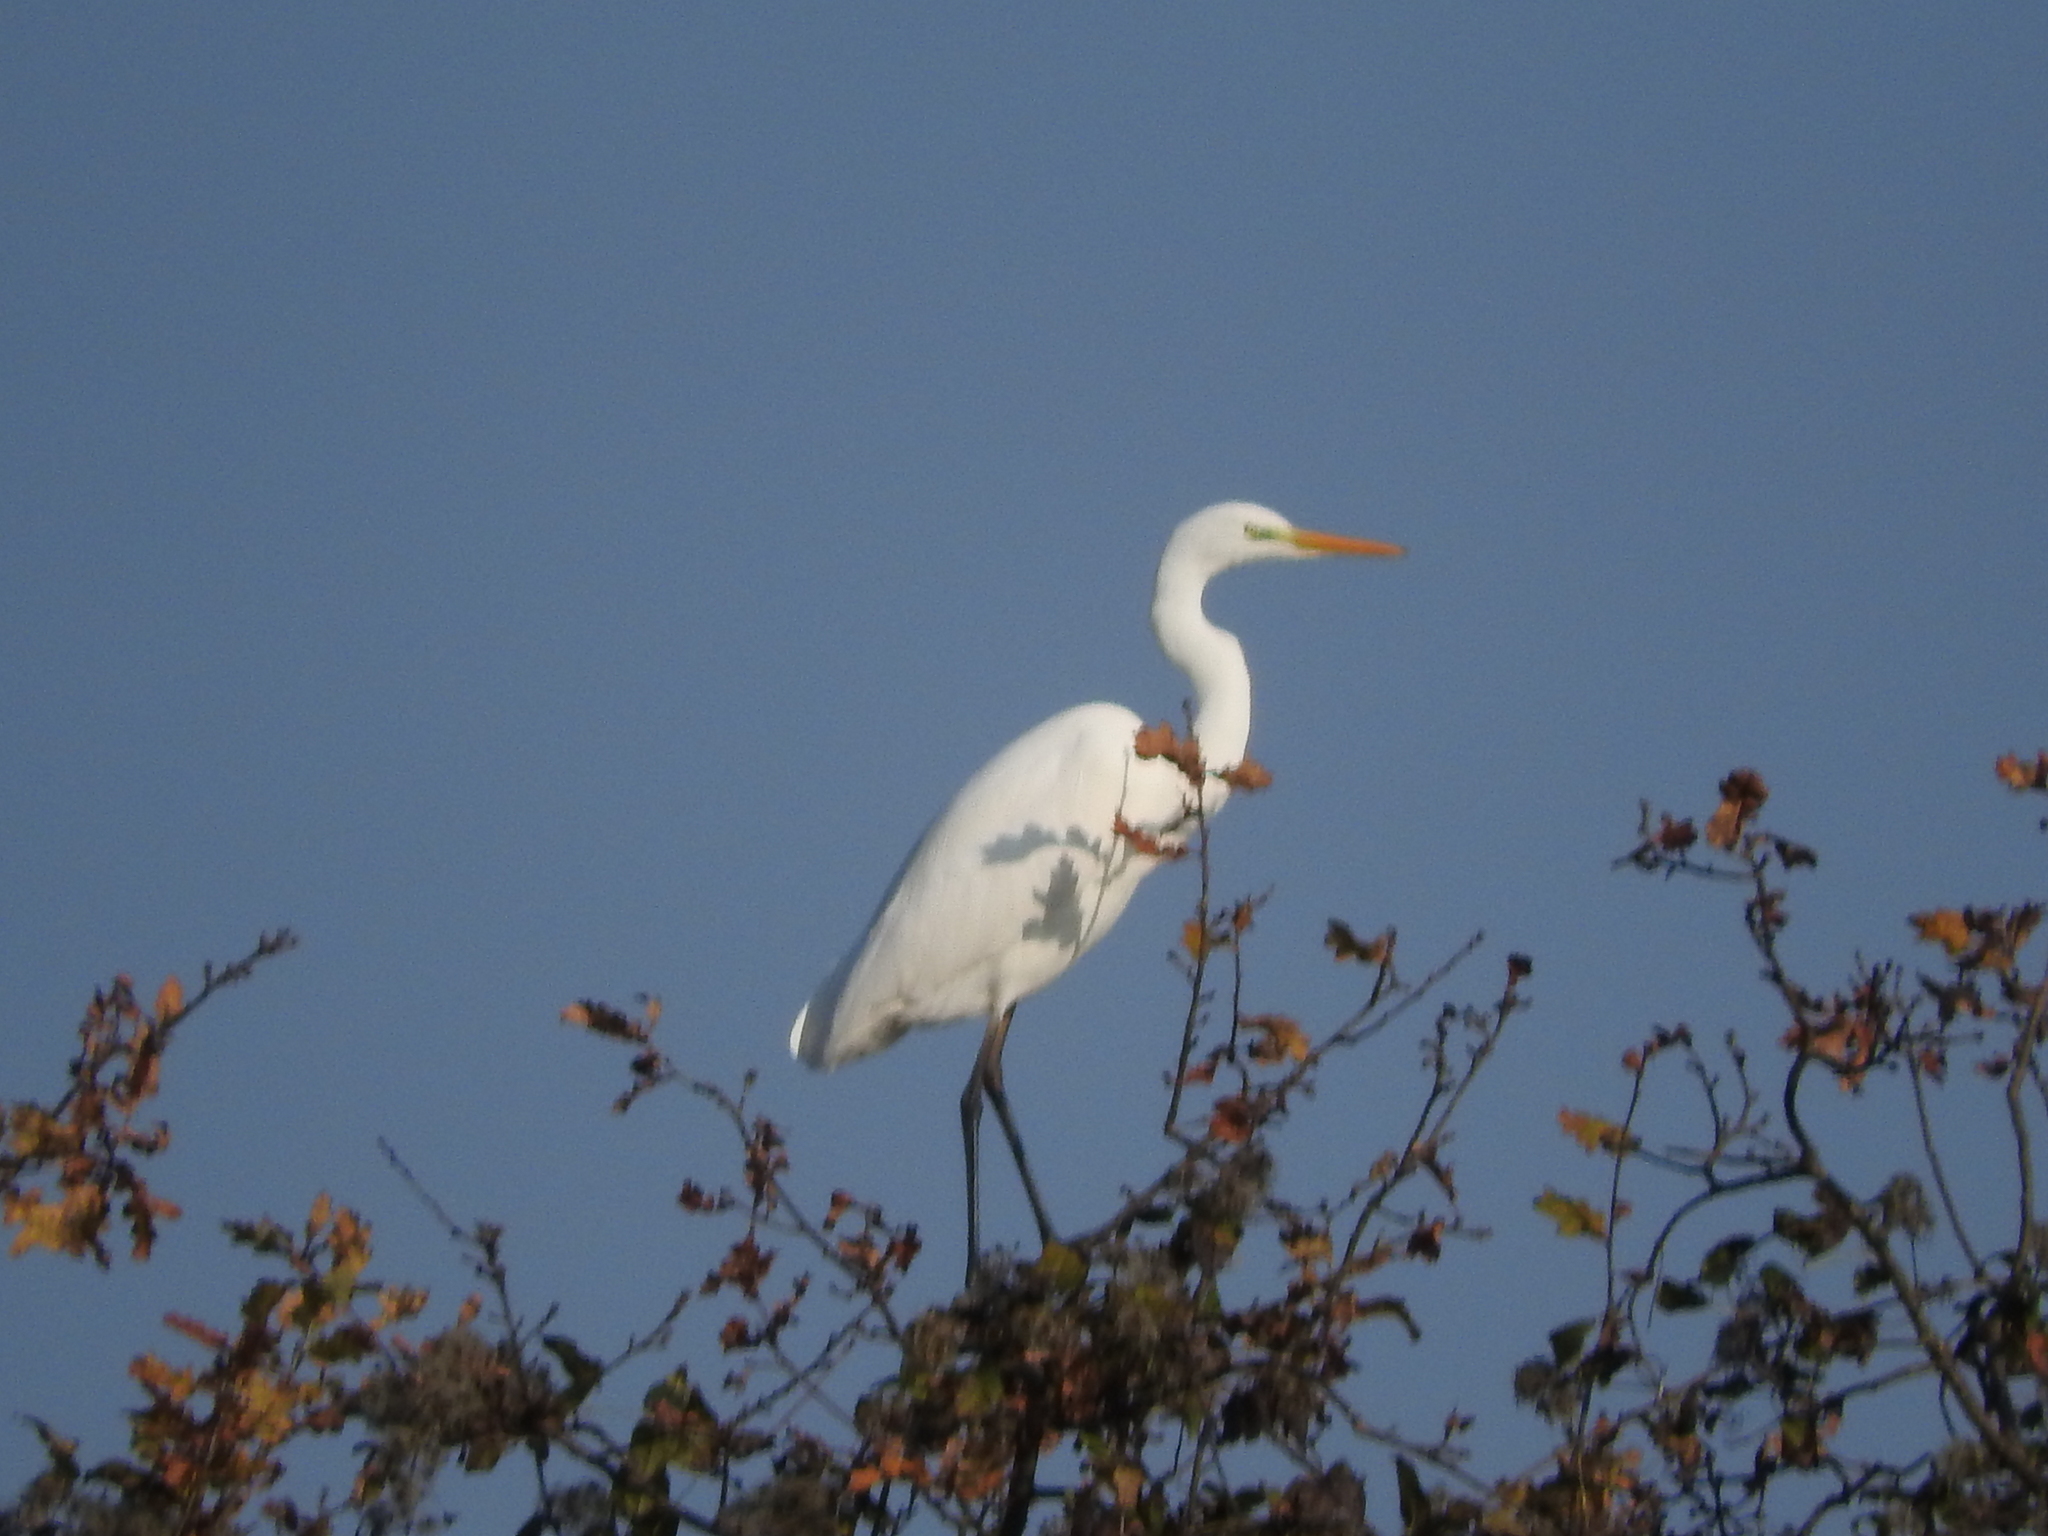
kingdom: Animalia
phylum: Chordata
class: Aves
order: Pelecaniformes
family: Ardeidae
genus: Ardea
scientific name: Ardea alba
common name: Great egret
